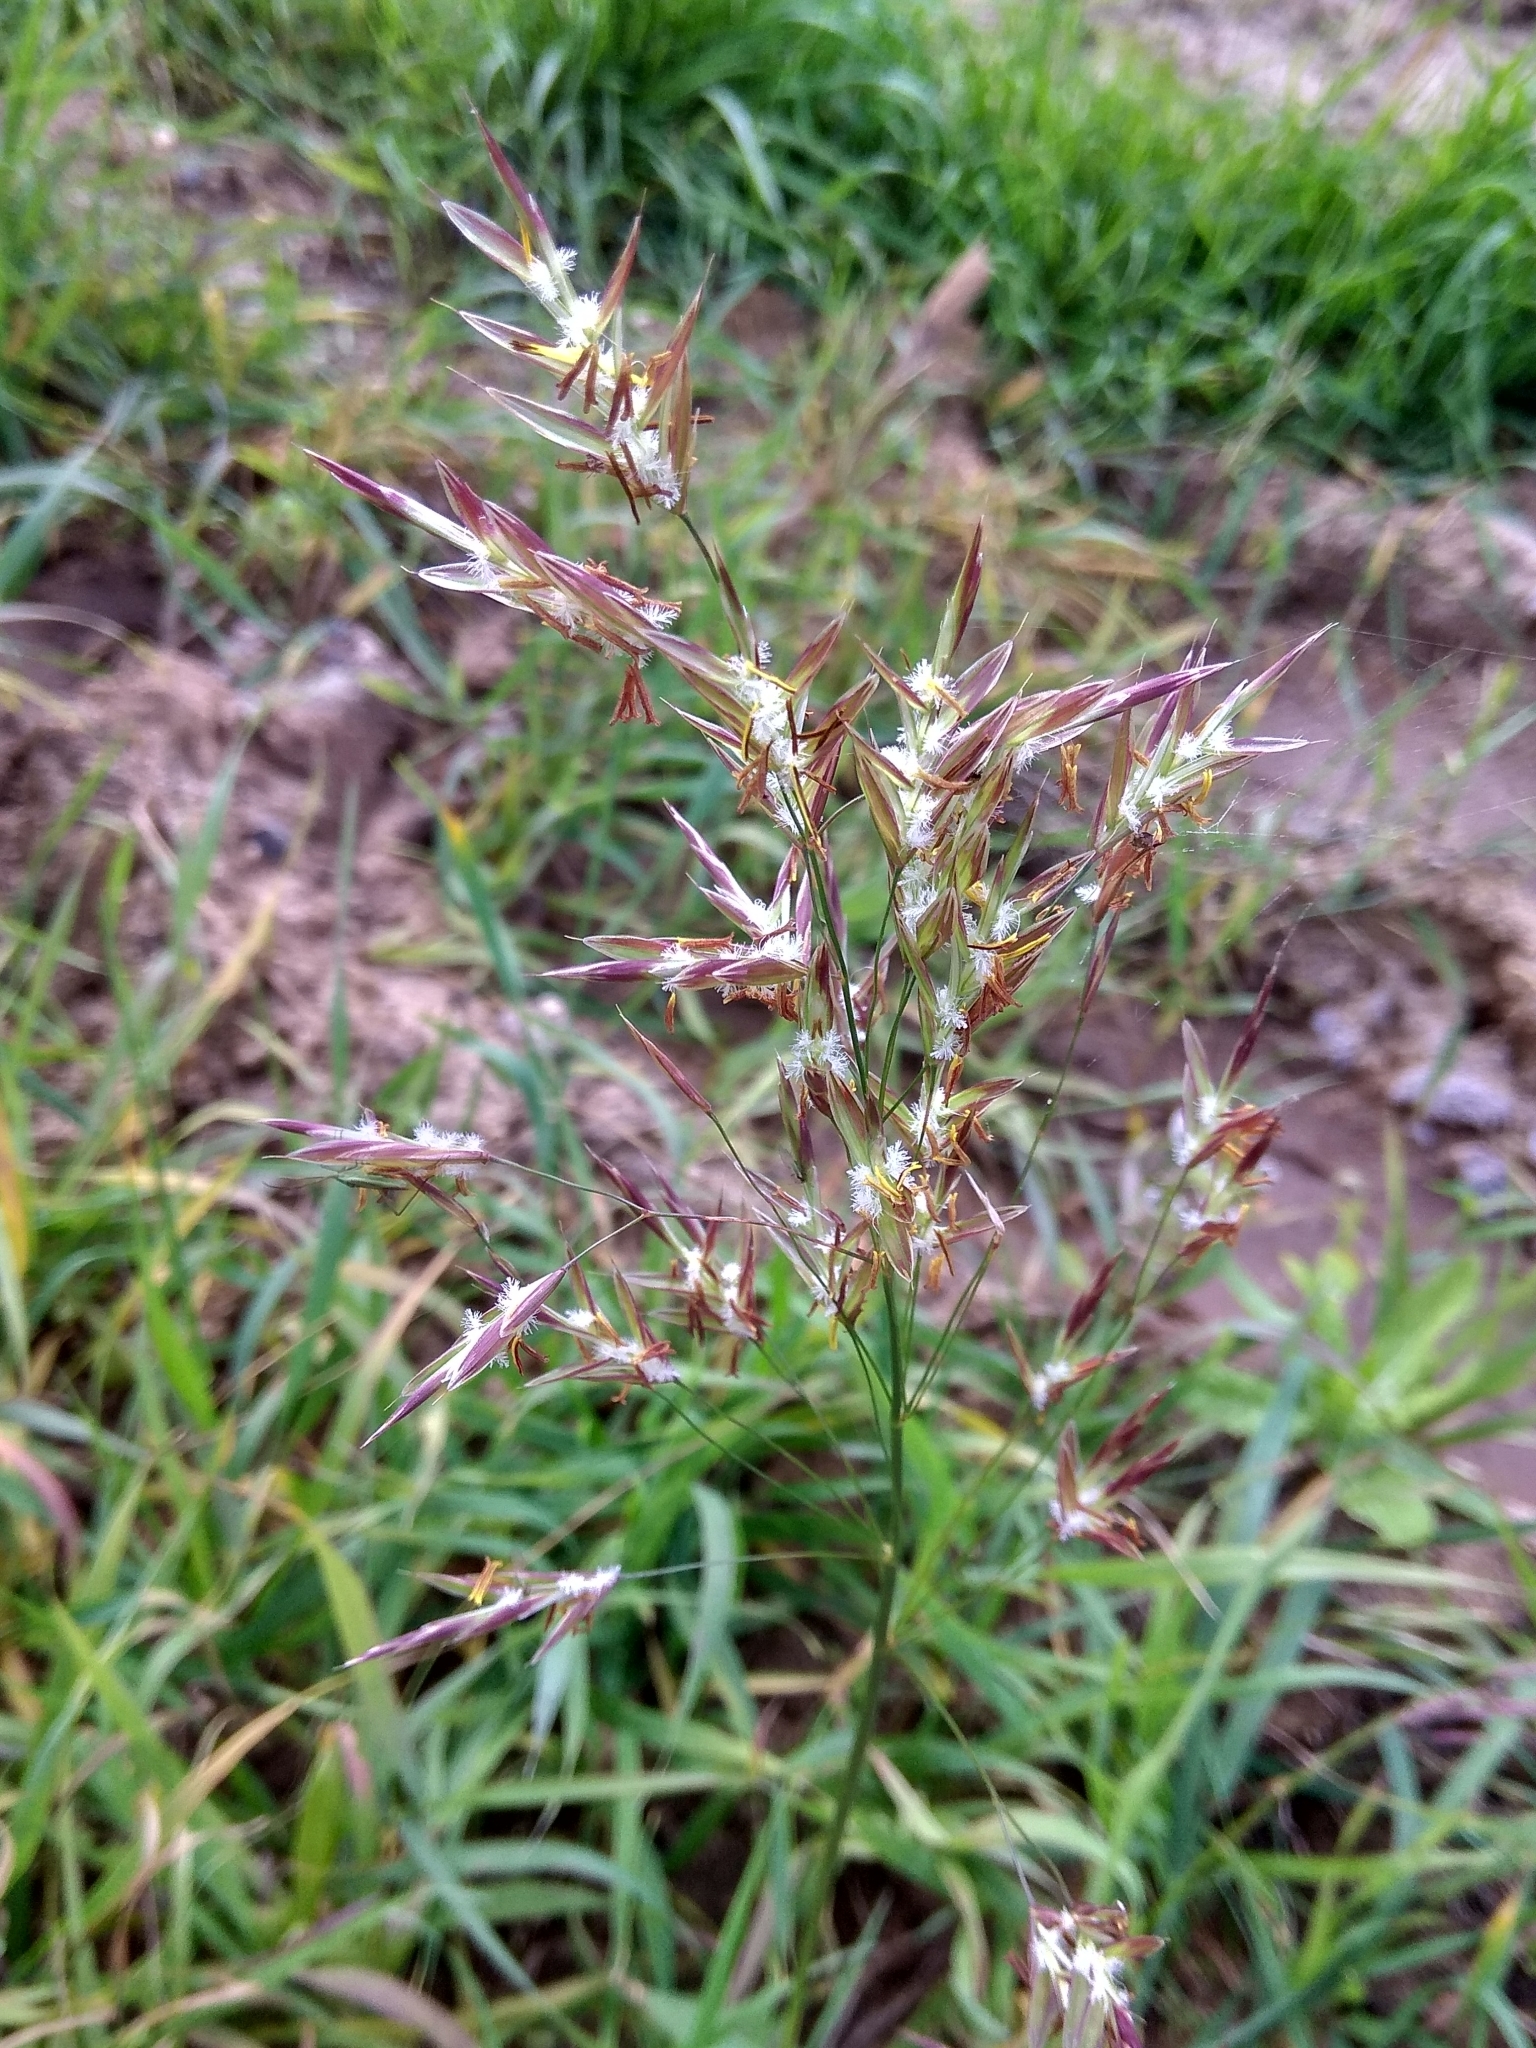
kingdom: Plantae
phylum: Tracheophyta
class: Liliopsida
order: Poales
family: Poaceae
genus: Bromus
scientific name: Bromus inermis
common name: Smooth brome
